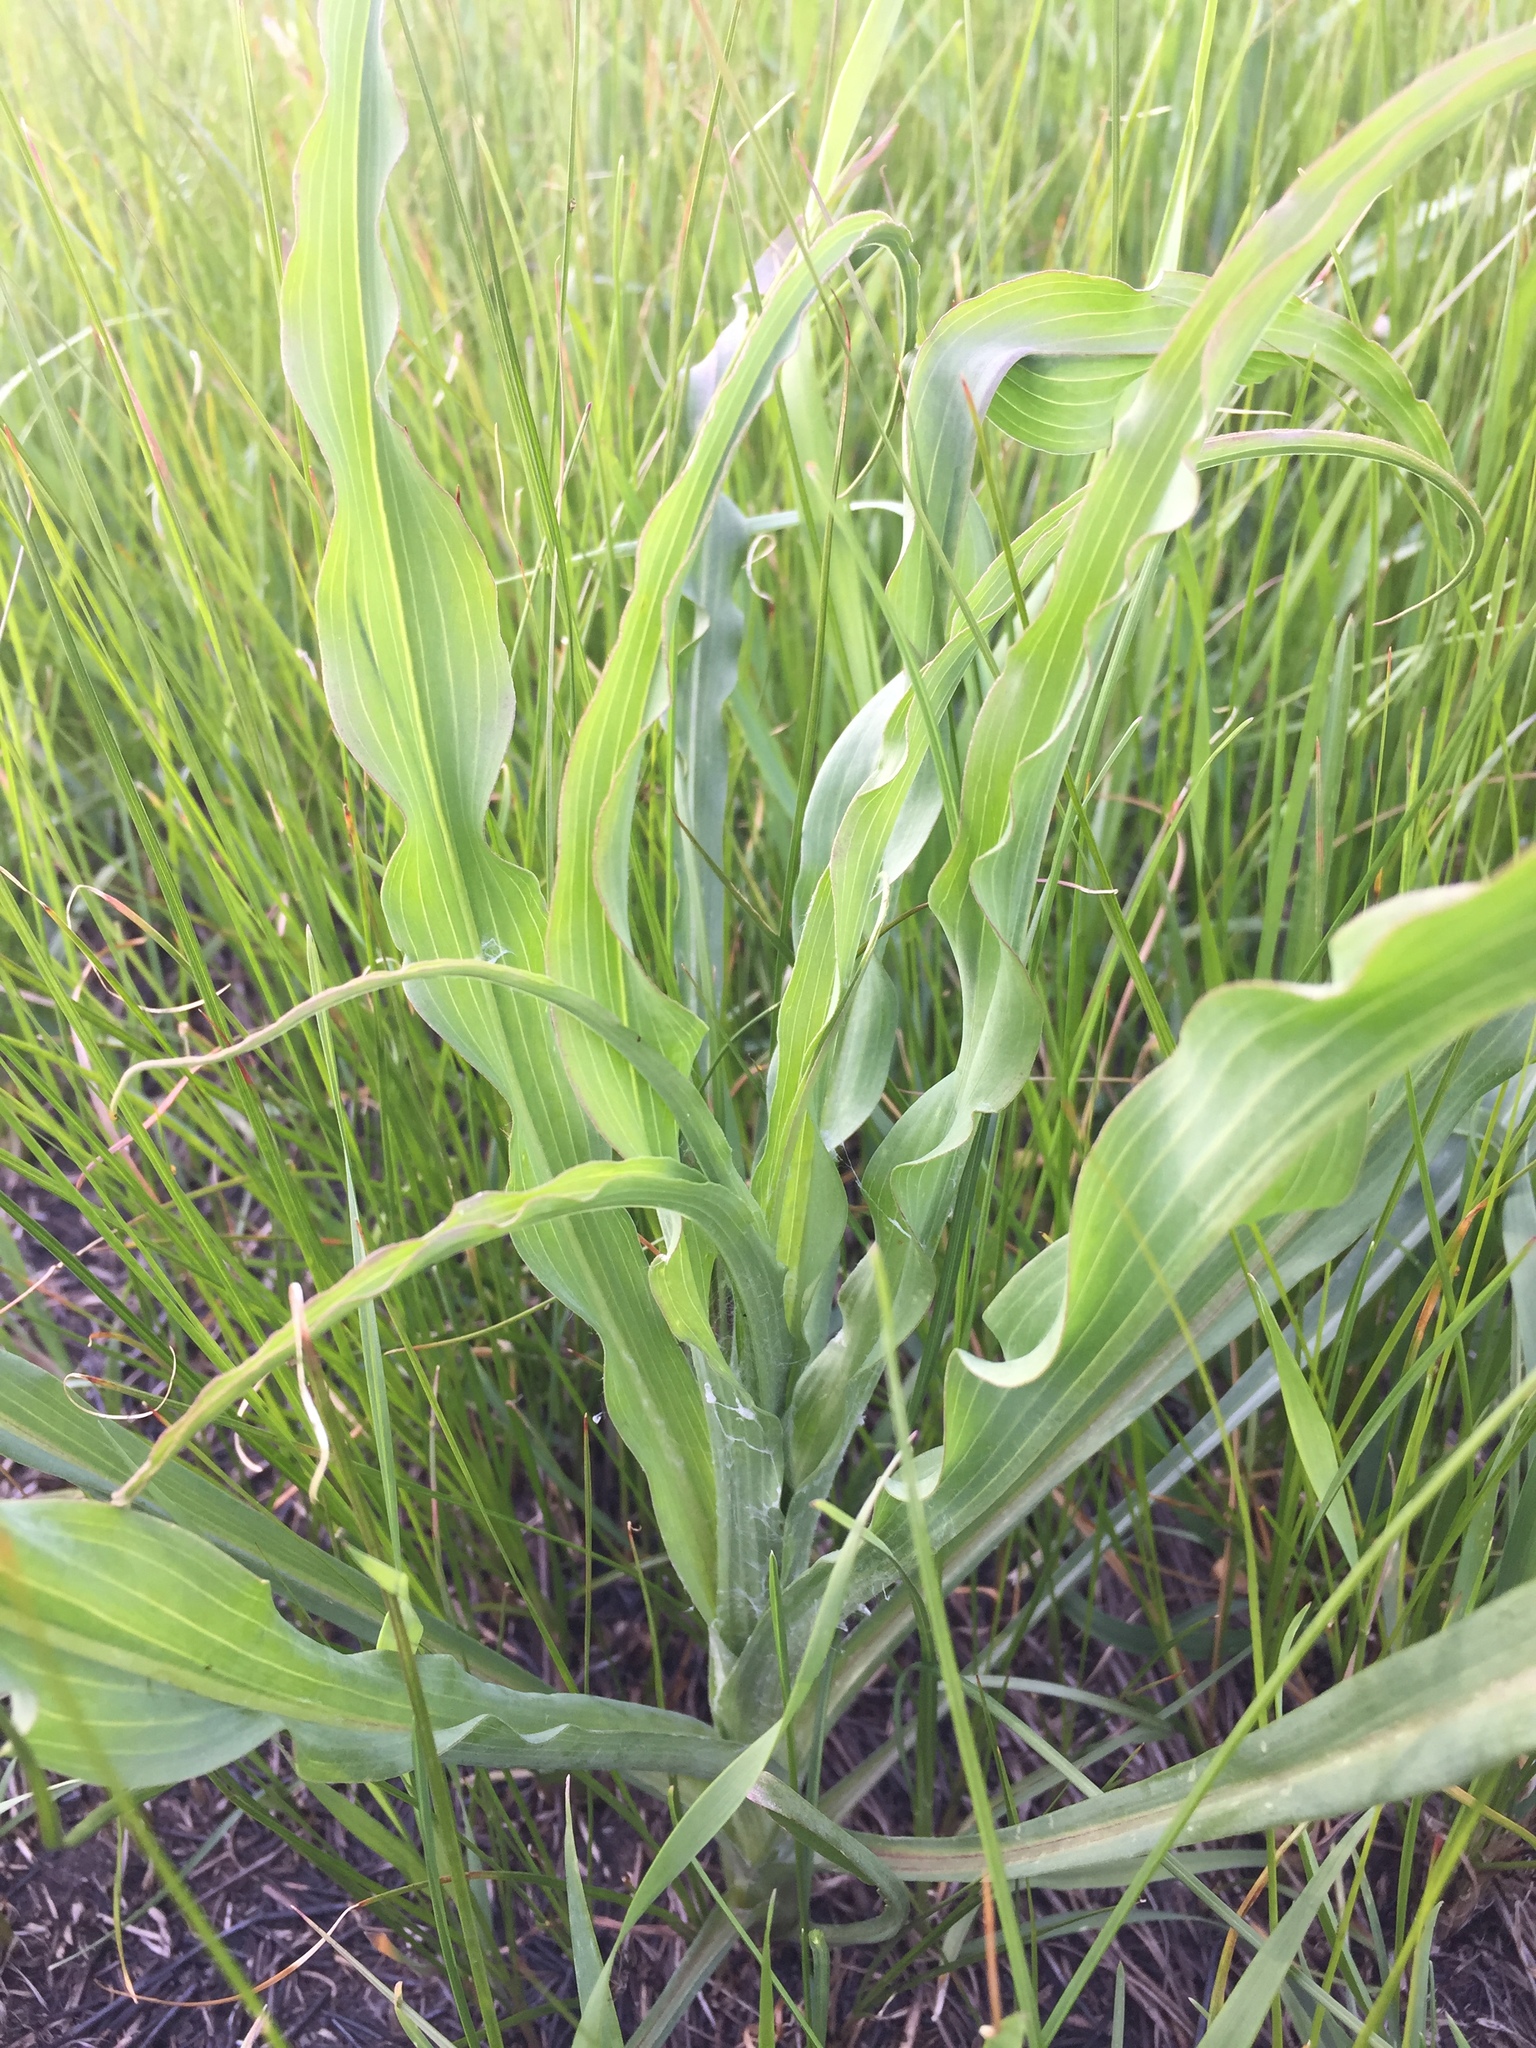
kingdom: Plantae
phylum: Tracheophyta
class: Magnoliopsida
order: Asterales
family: Asteraceae
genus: Pseudopodospermum
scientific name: Pseudopodospermum hispanicum
